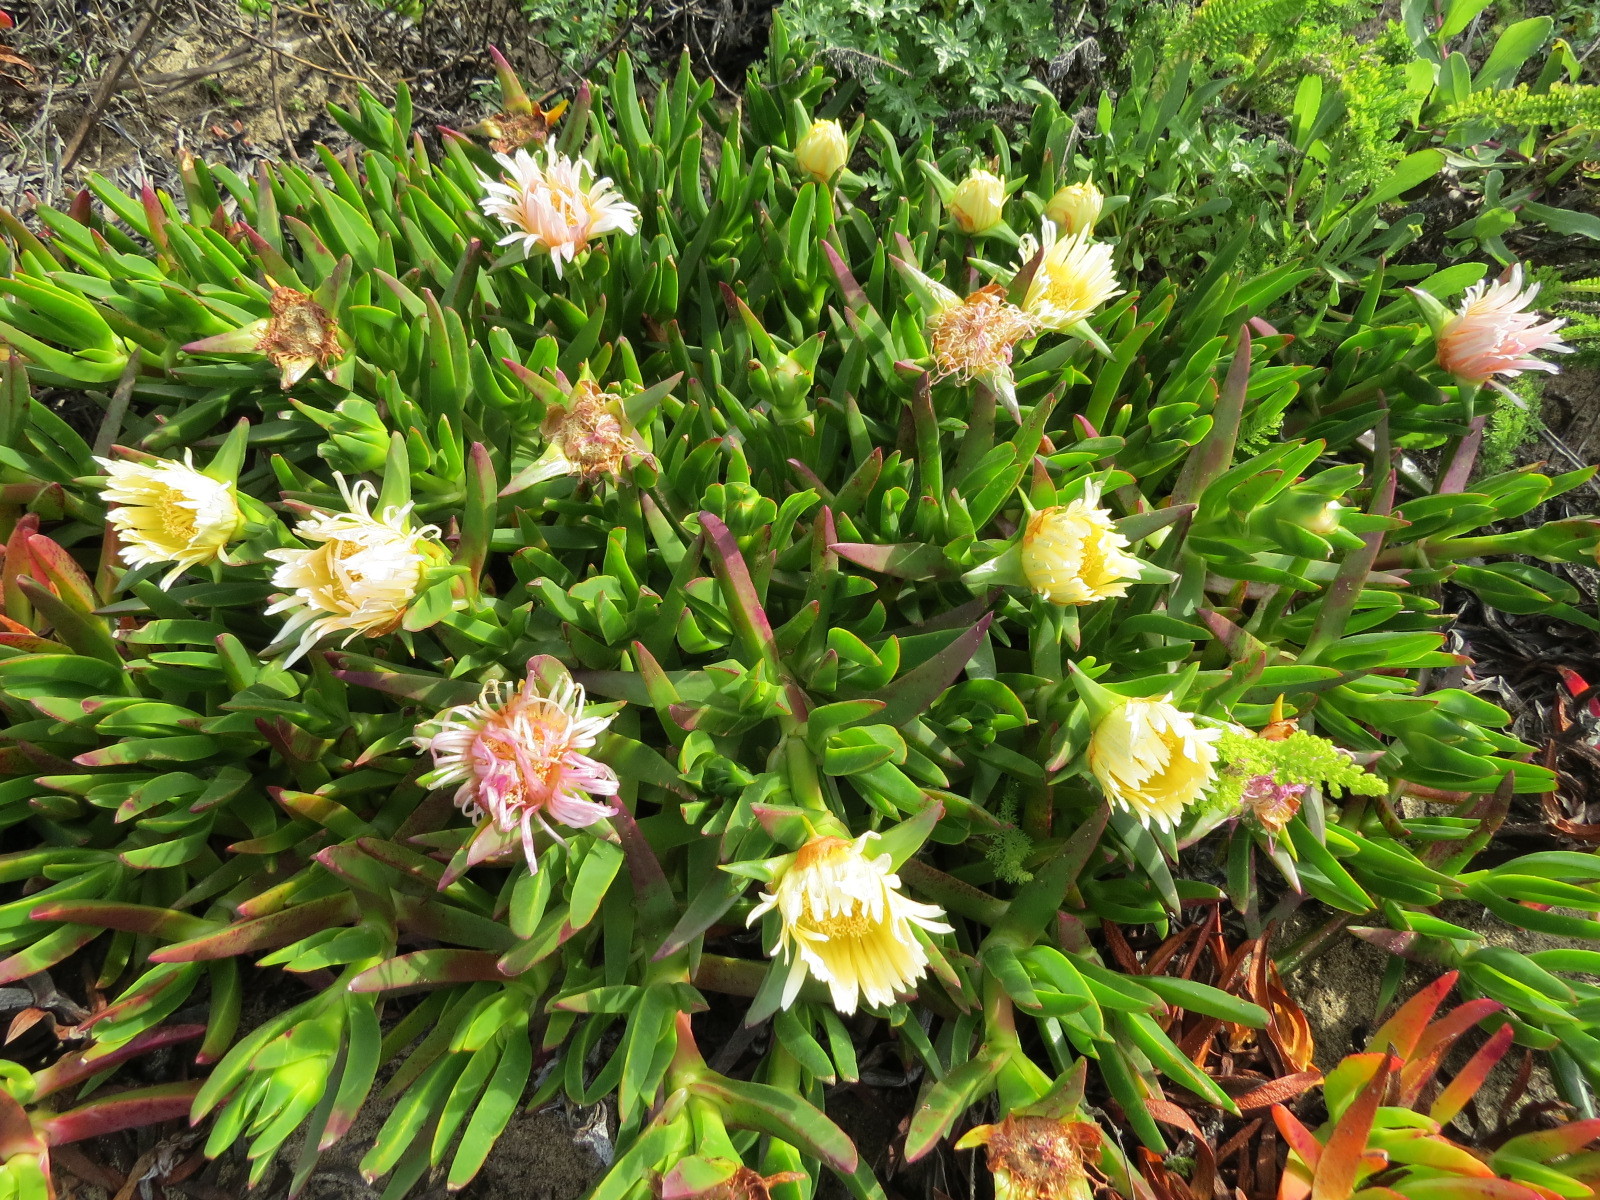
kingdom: Plantae
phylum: Tracheophyta
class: Magnoliopsida
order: Caryophyllales
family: Aizoaceae
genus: Carpobrotus
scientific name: Carpobrotus edulis
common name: Hottentot-fig
